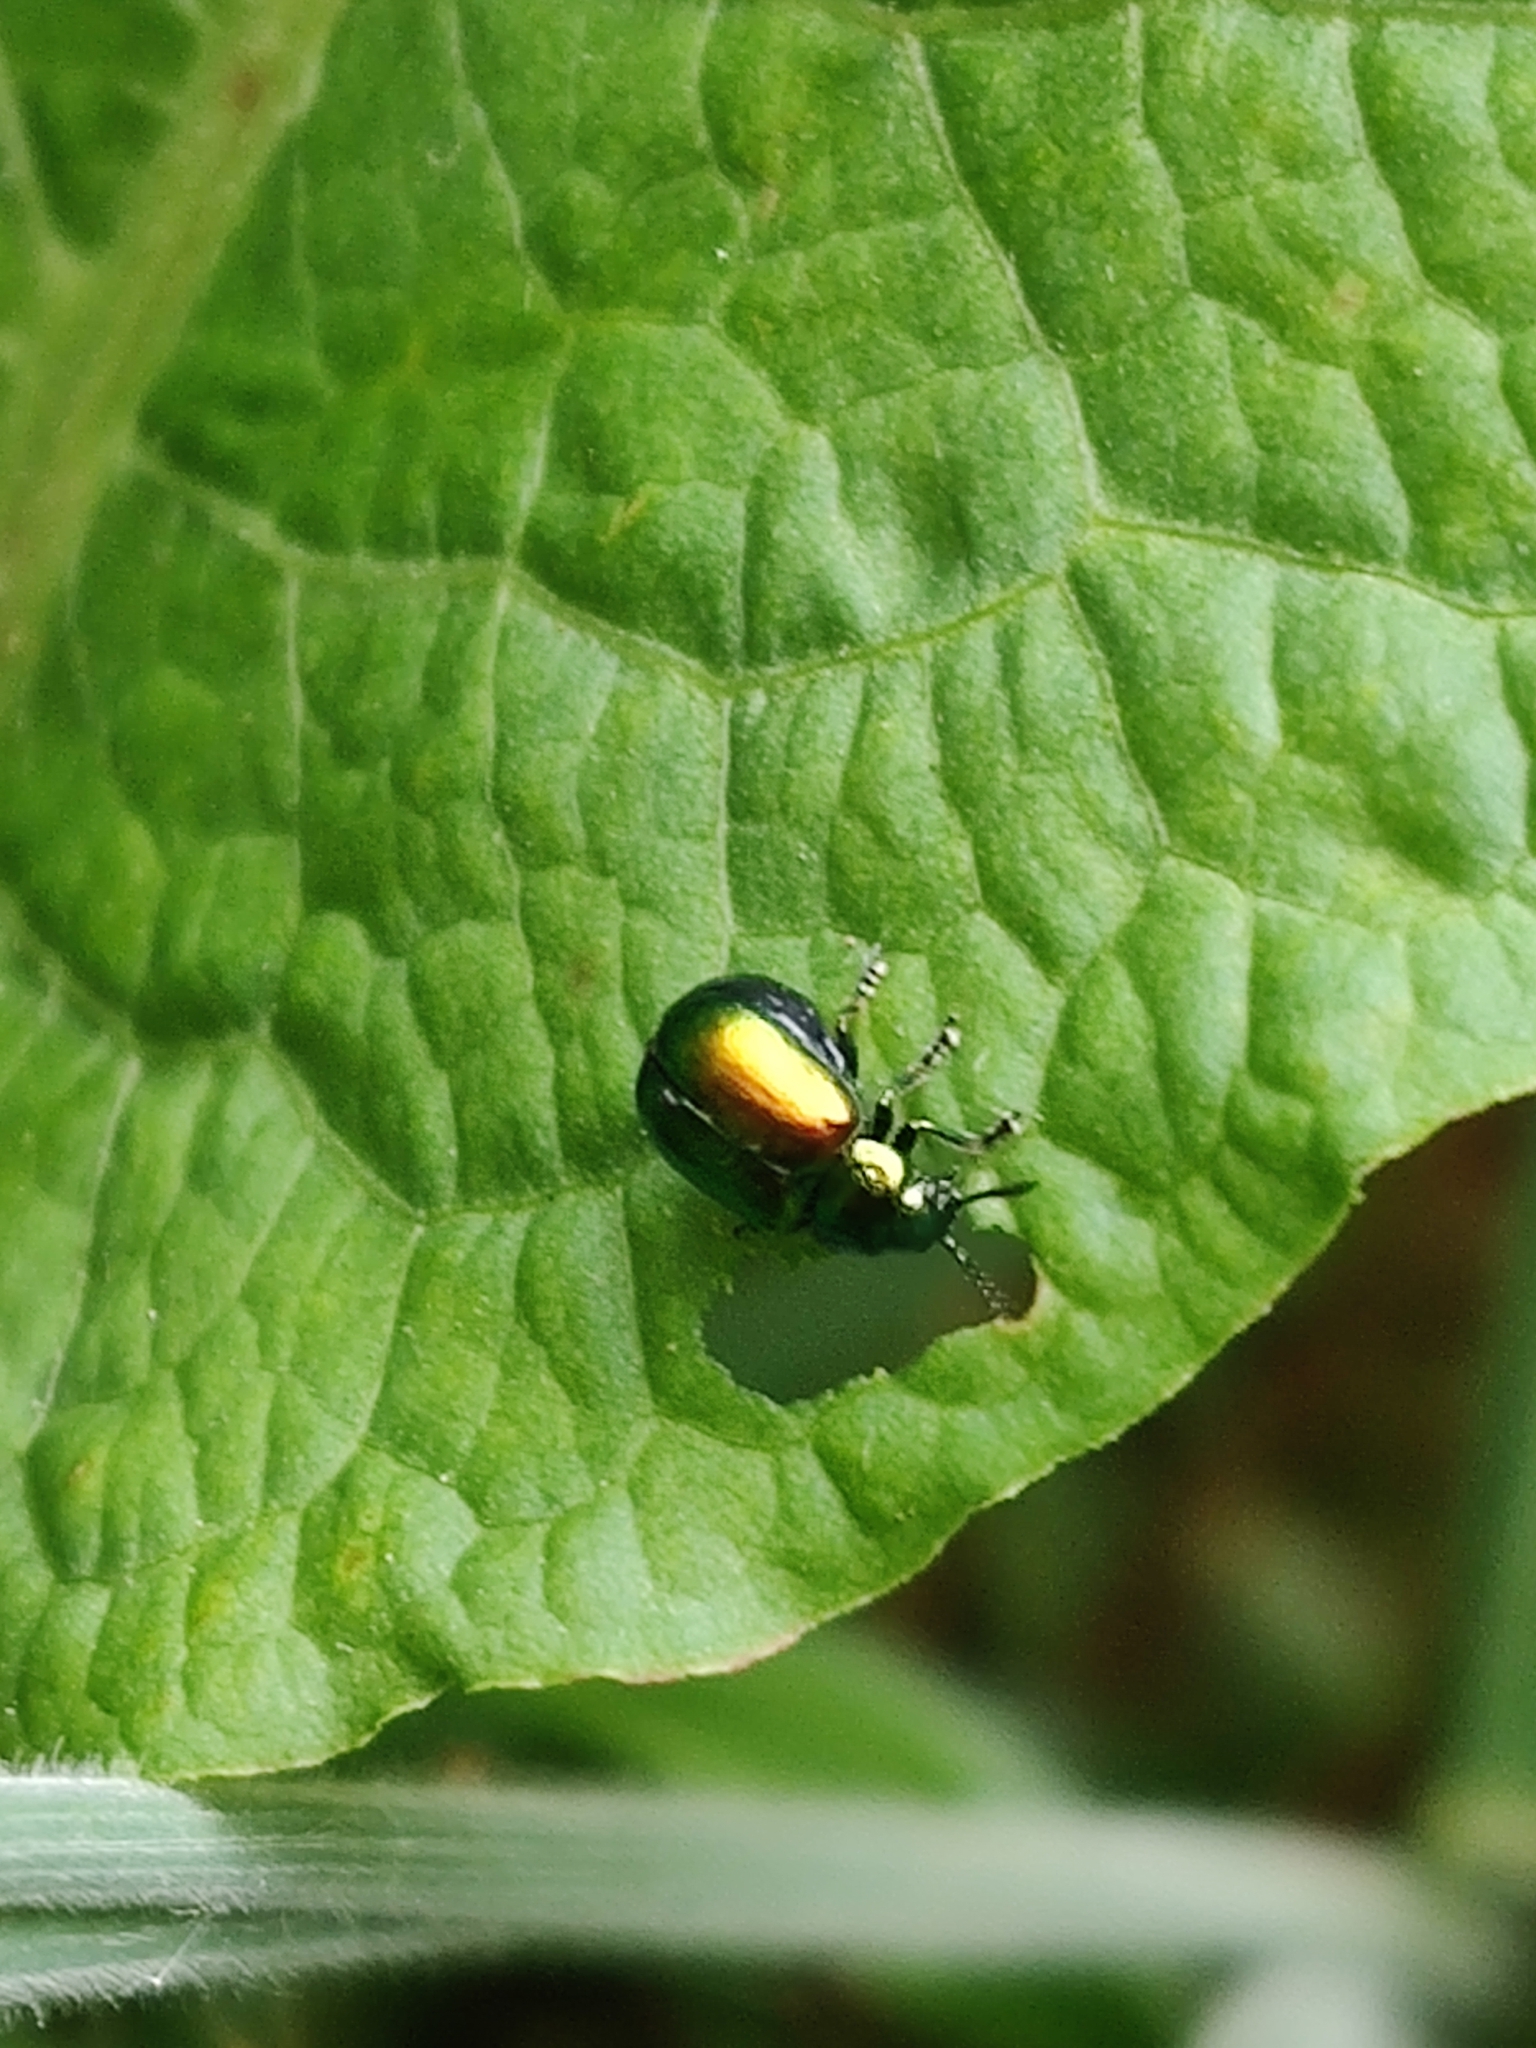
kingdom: Animalia
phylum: Arthropoda
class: Insecta
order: Coleoptera
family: Chrysomelidae
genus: Gastrophysa
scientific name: Gastrophysa viridula
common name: Green dock beetle
